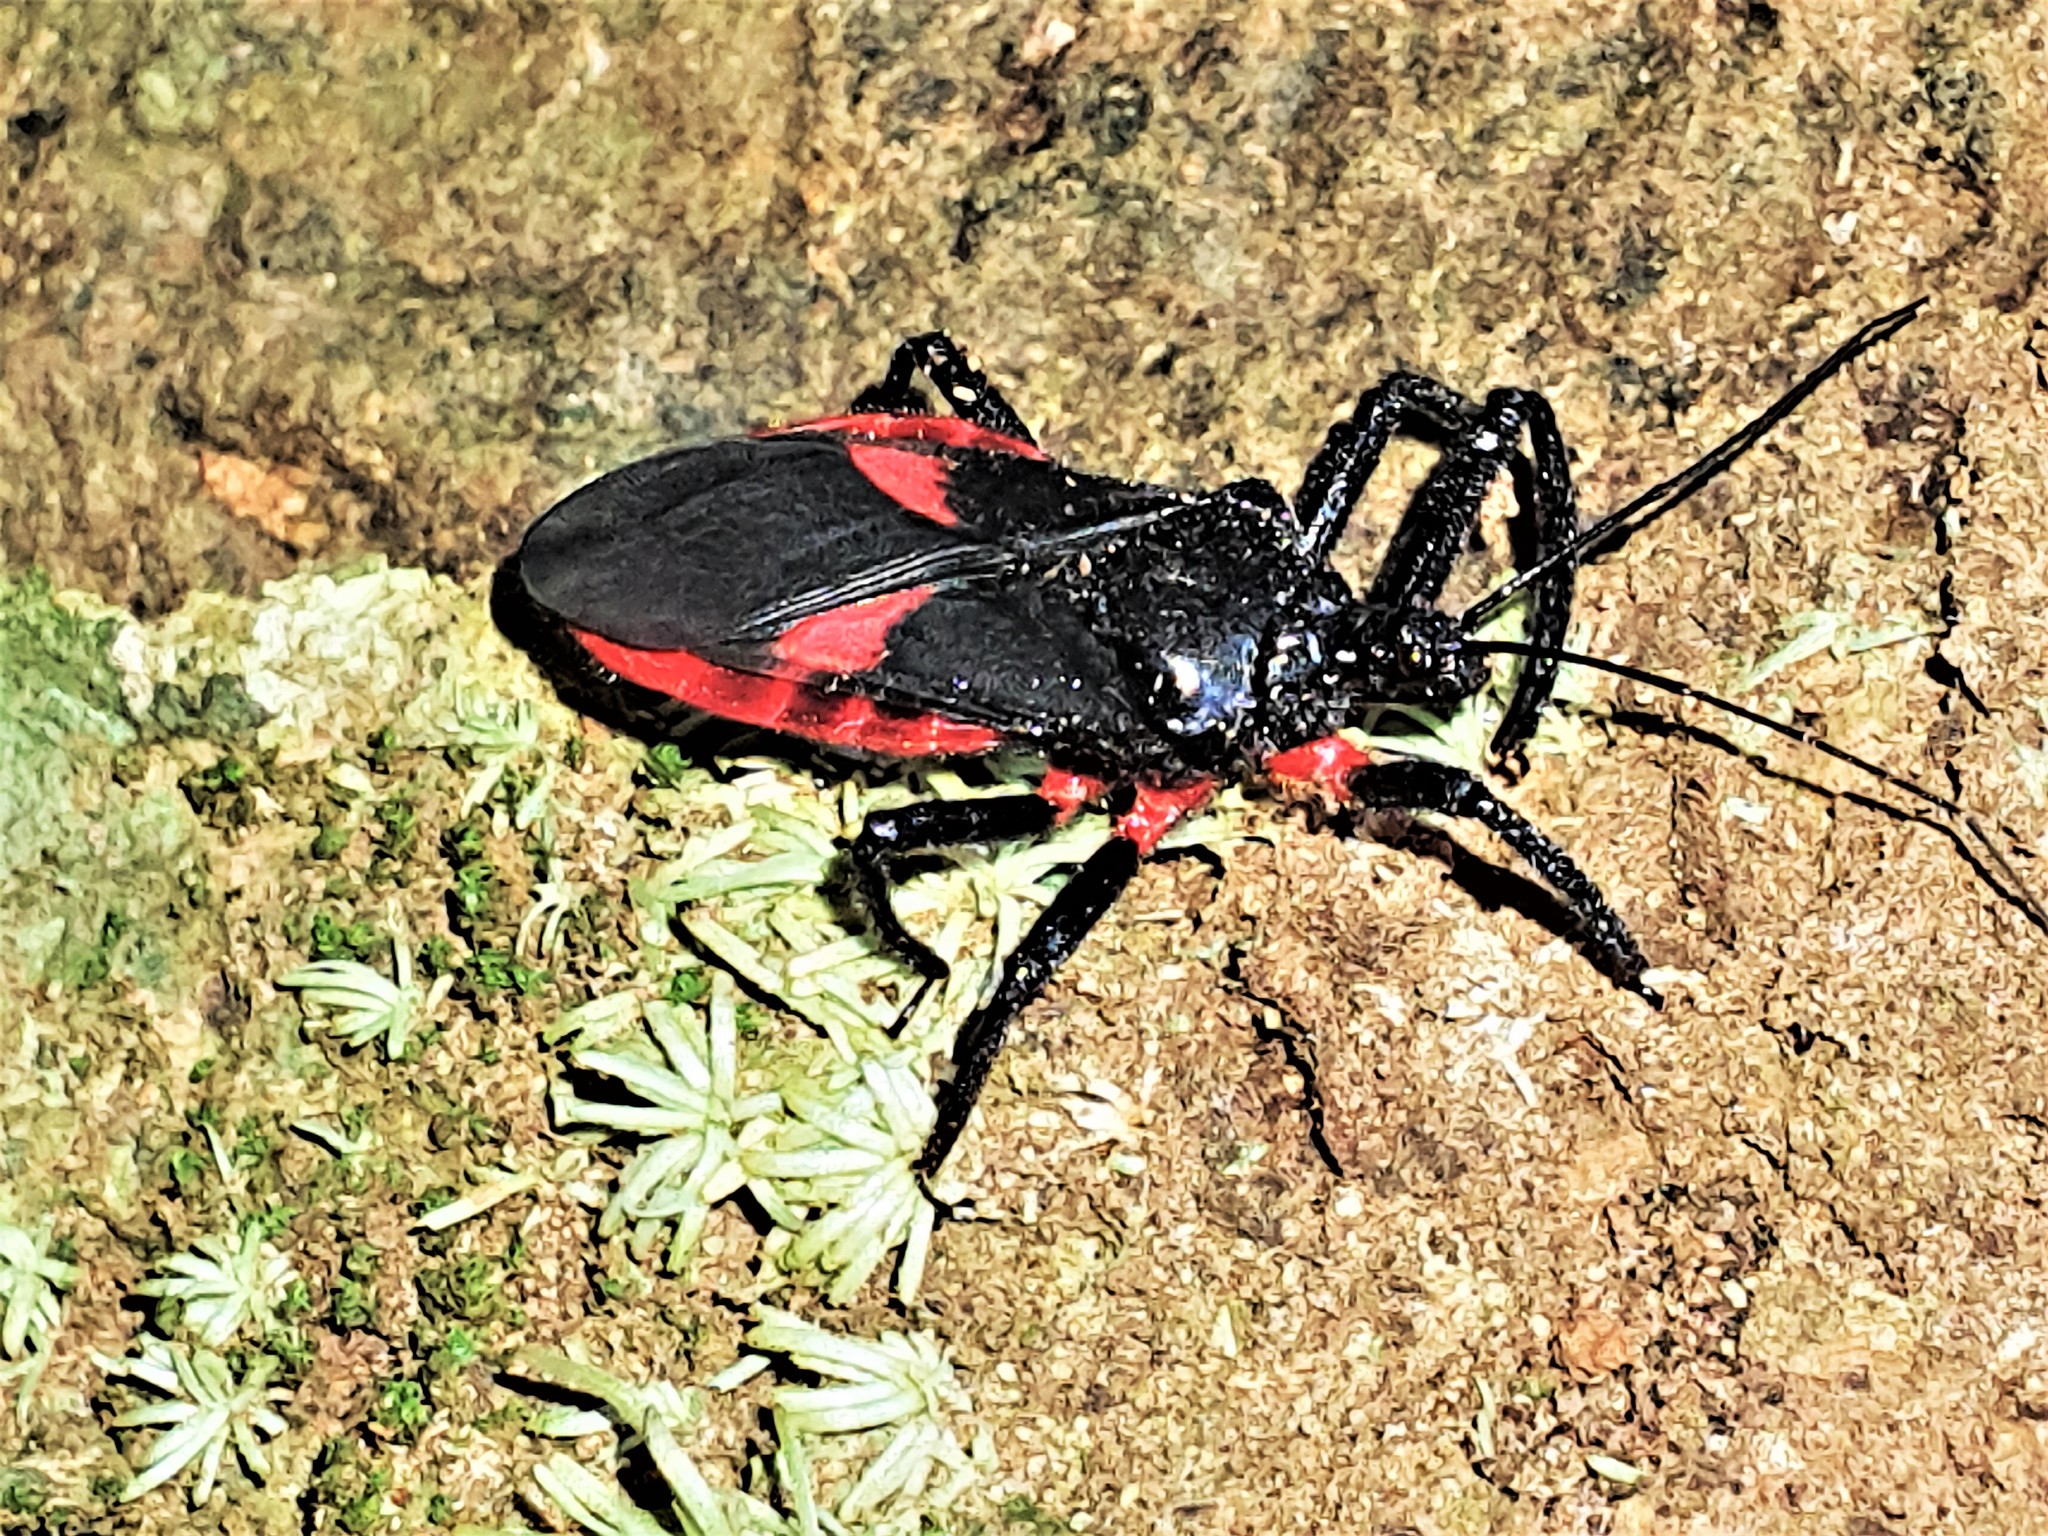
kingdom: Animalia
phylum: Arthropoda
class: Insecta
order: Hemiptera
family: Reduviidae
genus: Micrauchenus
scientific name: Micrauchenus lineola
